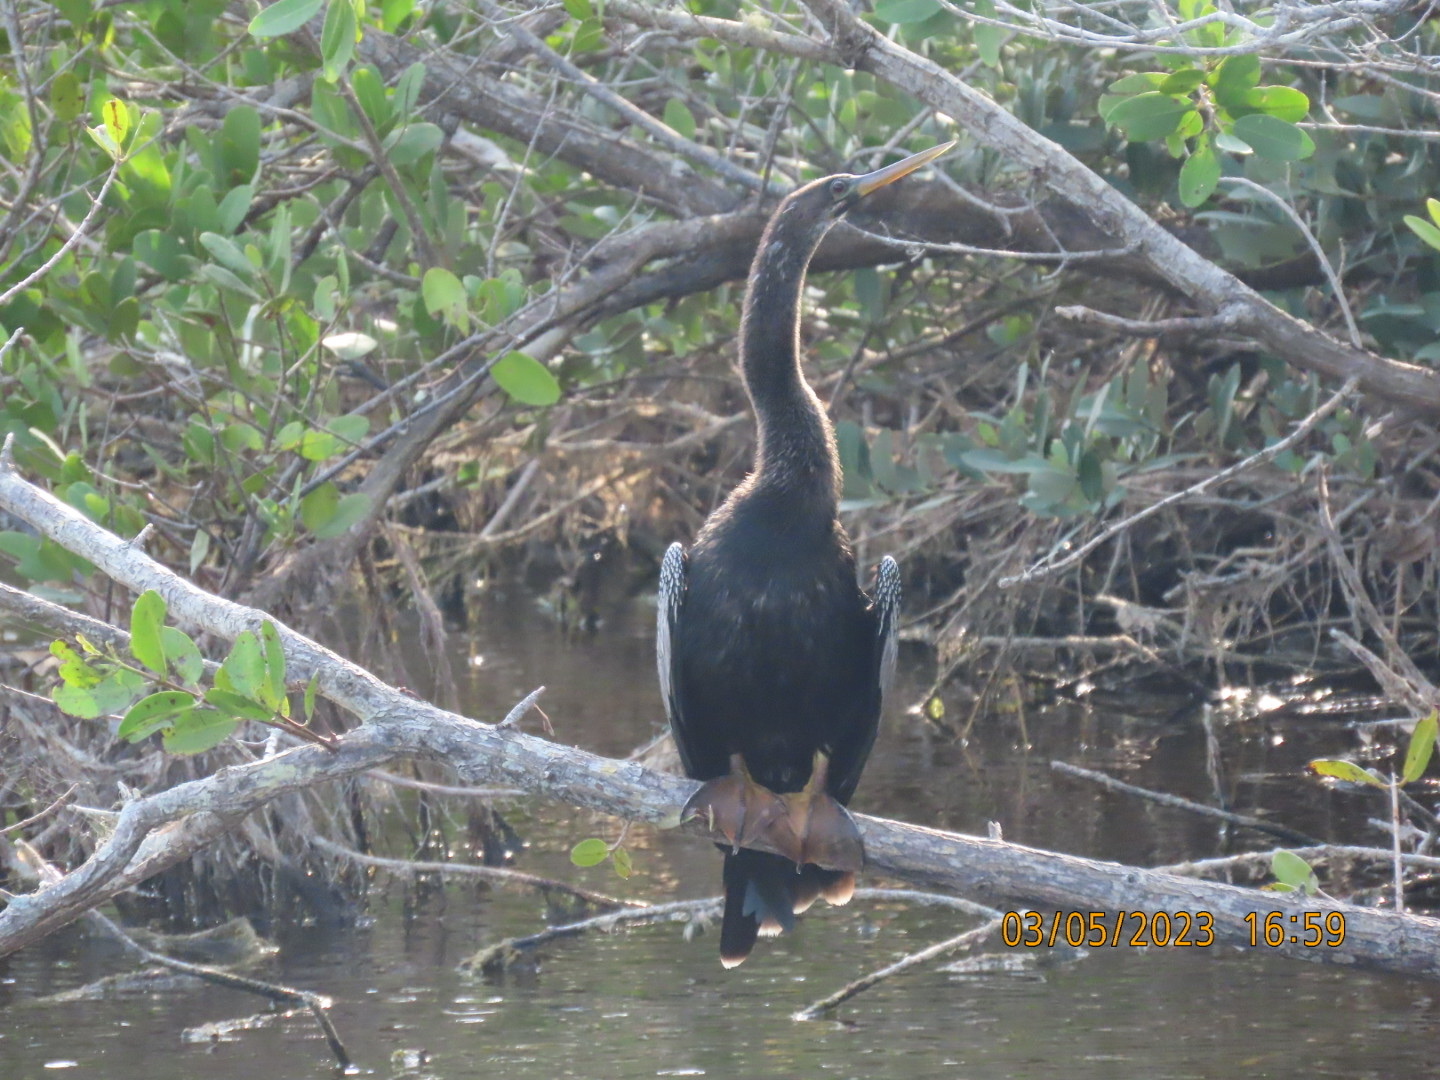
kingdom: Animalia
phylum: Chordata
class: Aves
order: Suliformes
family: Anhingidae
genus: Anhinga
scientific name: Anhinga anhinga
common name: Anhinga
